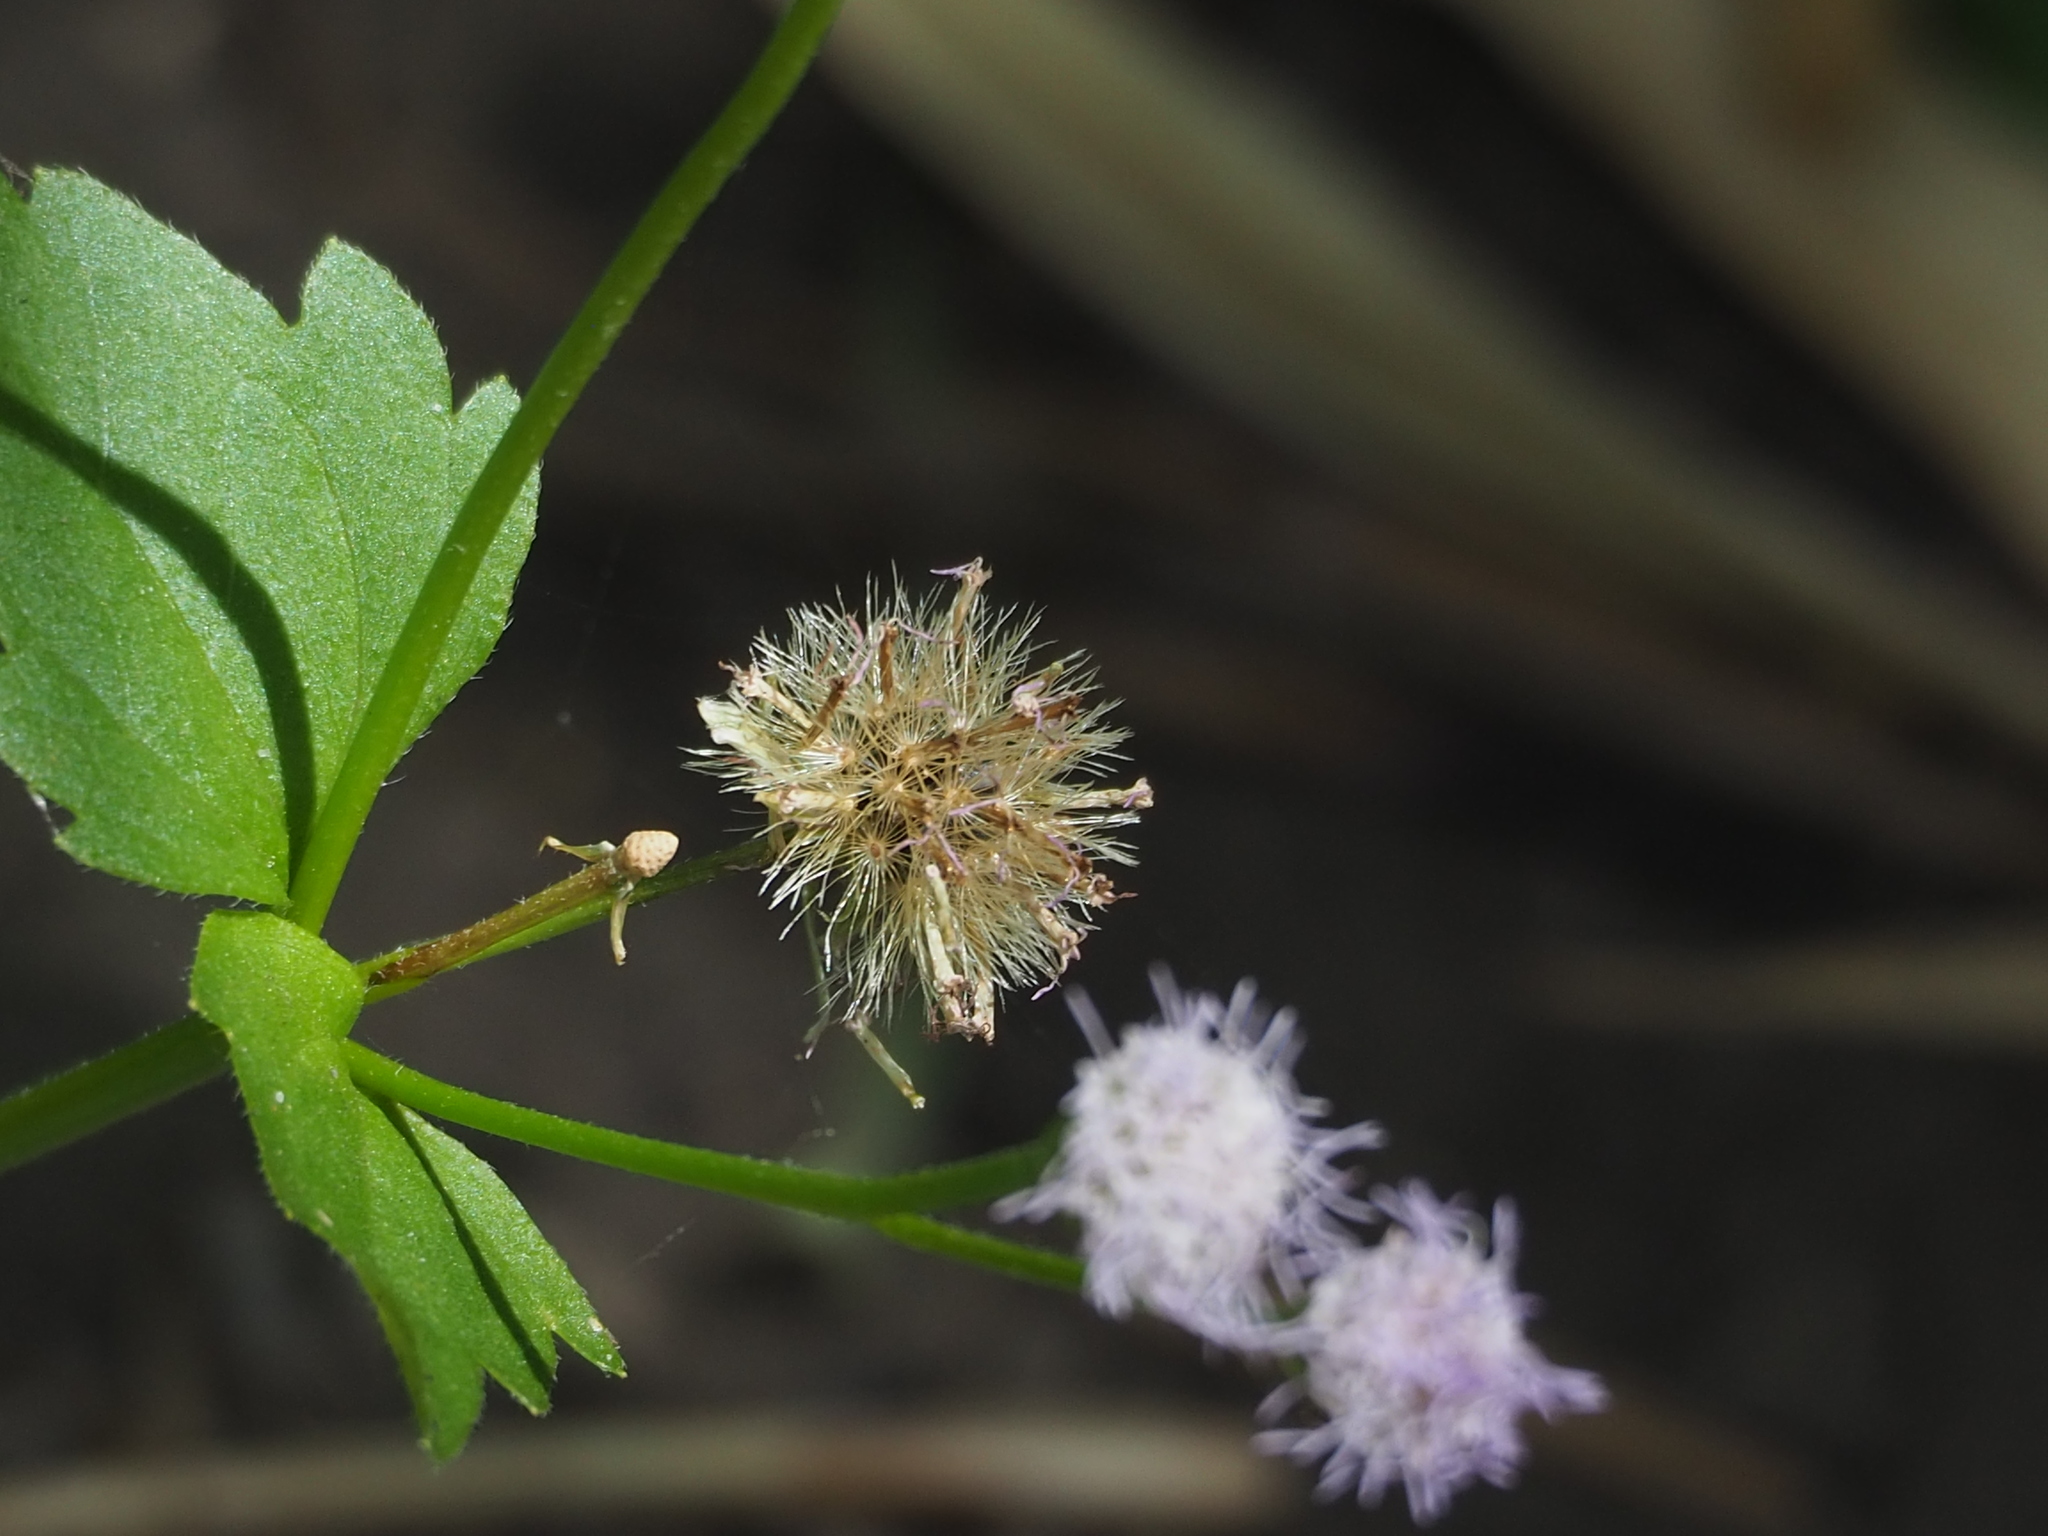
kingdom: Plantae
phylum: Tracheophyta
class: Magnoliopsida
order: Asterales
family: Asteraceae
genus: Praxelis
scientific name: Praxelis clematidea
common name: Praxelis
